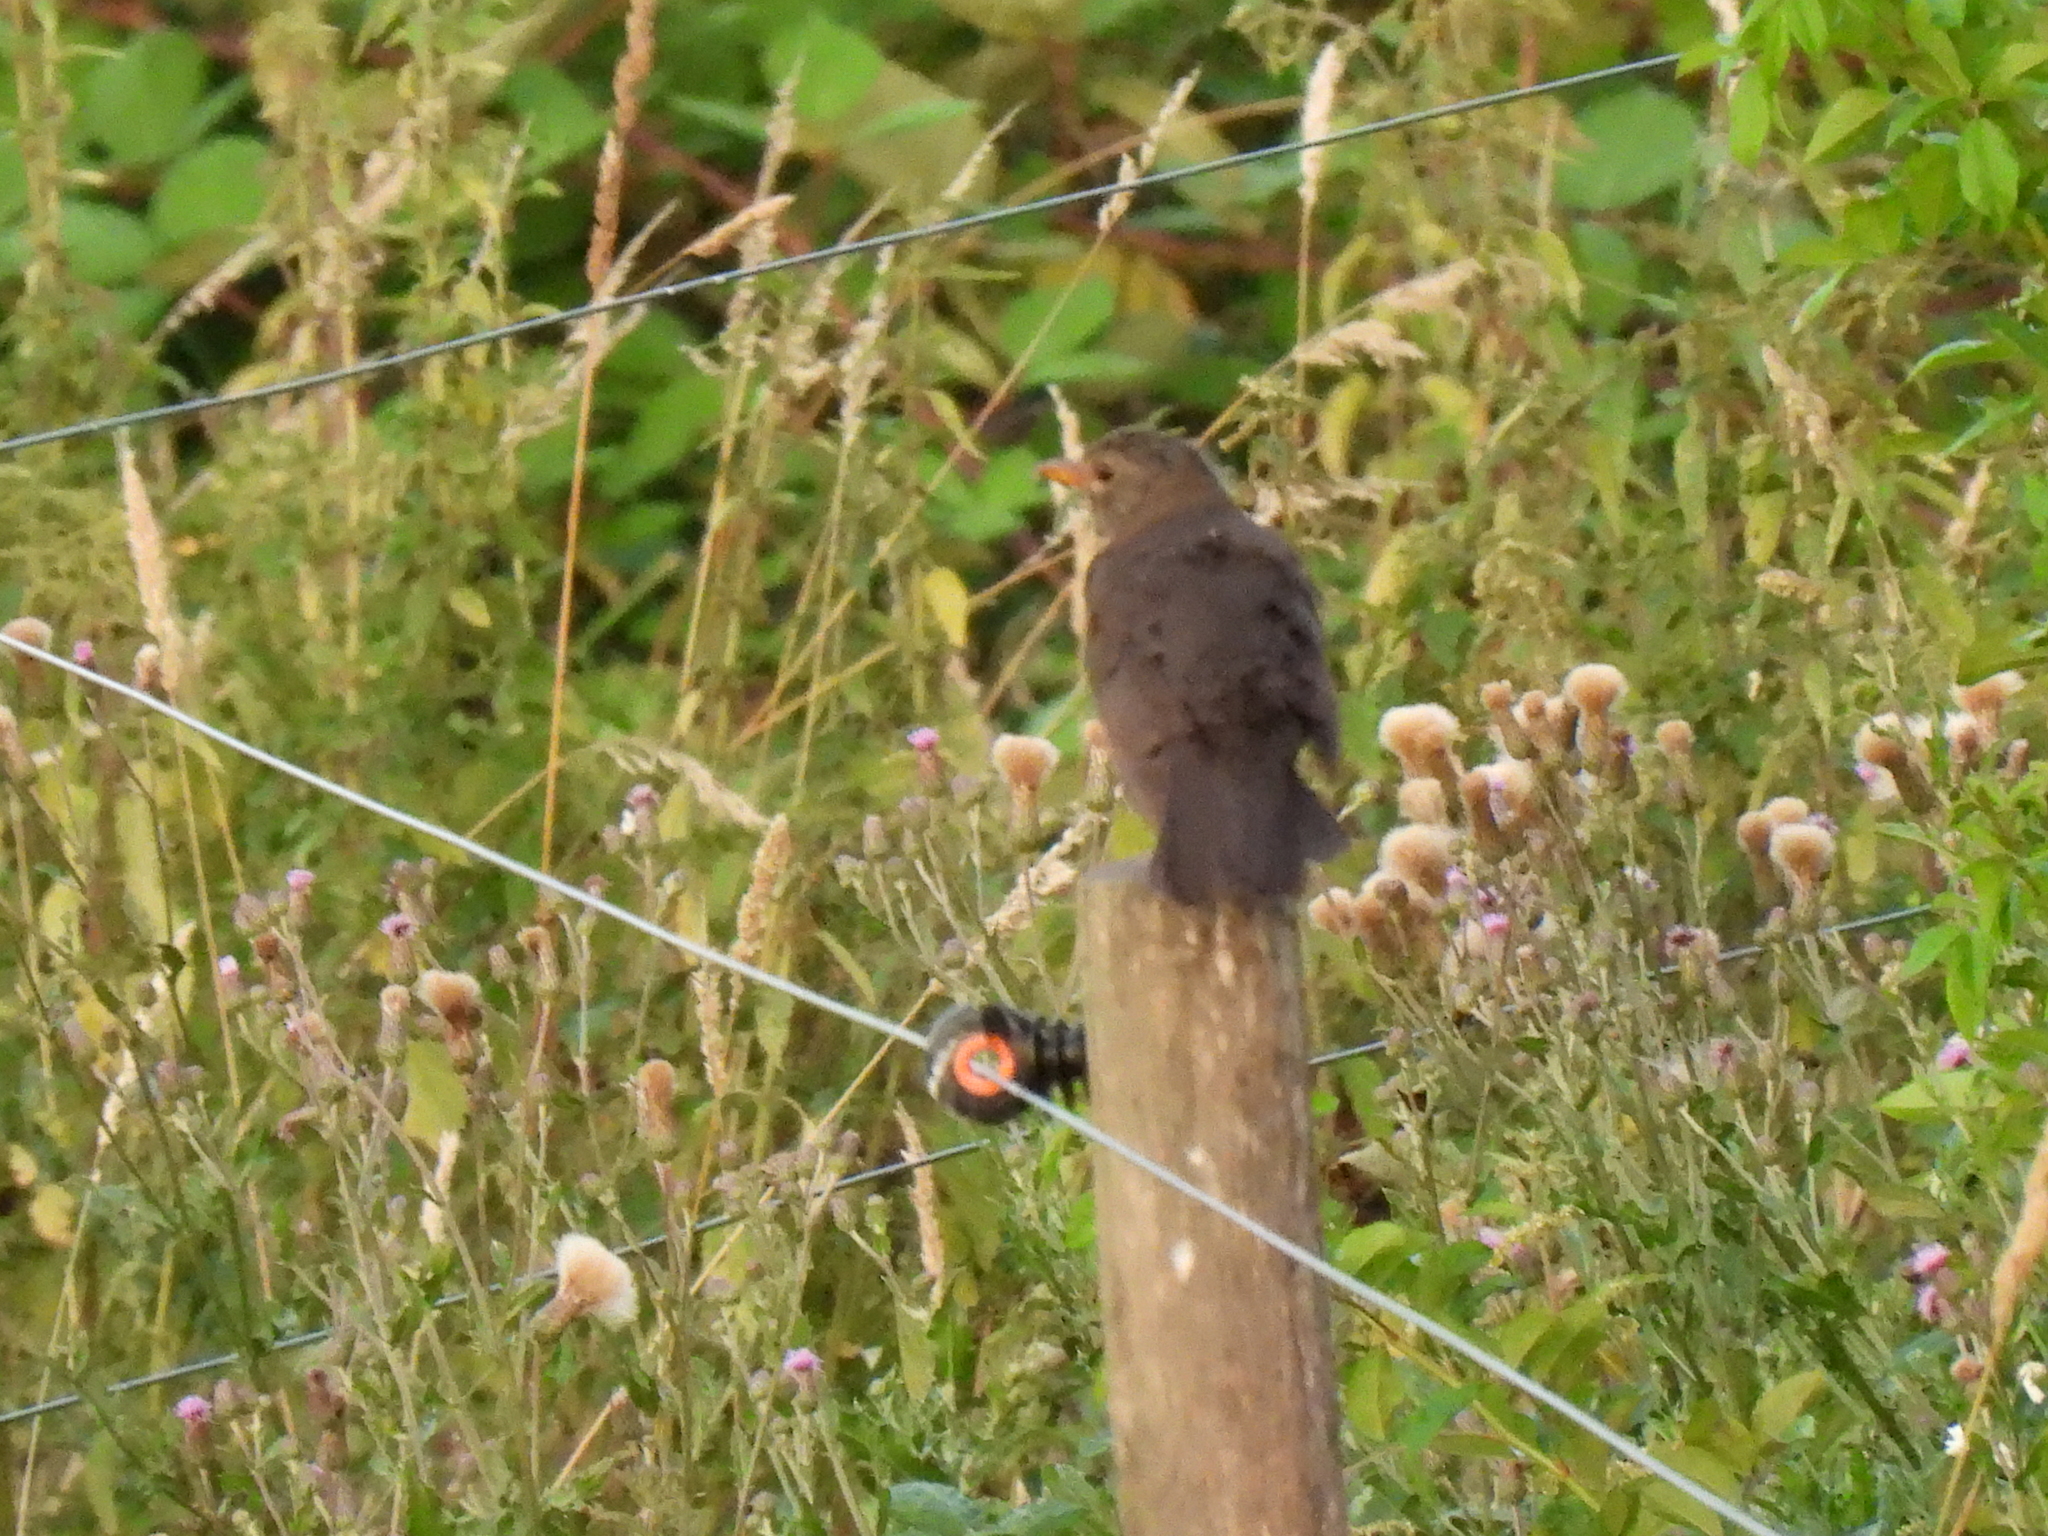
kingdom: Animalia
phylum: Chordata
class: Aves
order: Passeriformes
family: Turdidae
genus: Turdus
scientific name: Turdus merula
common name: Common blackbird
